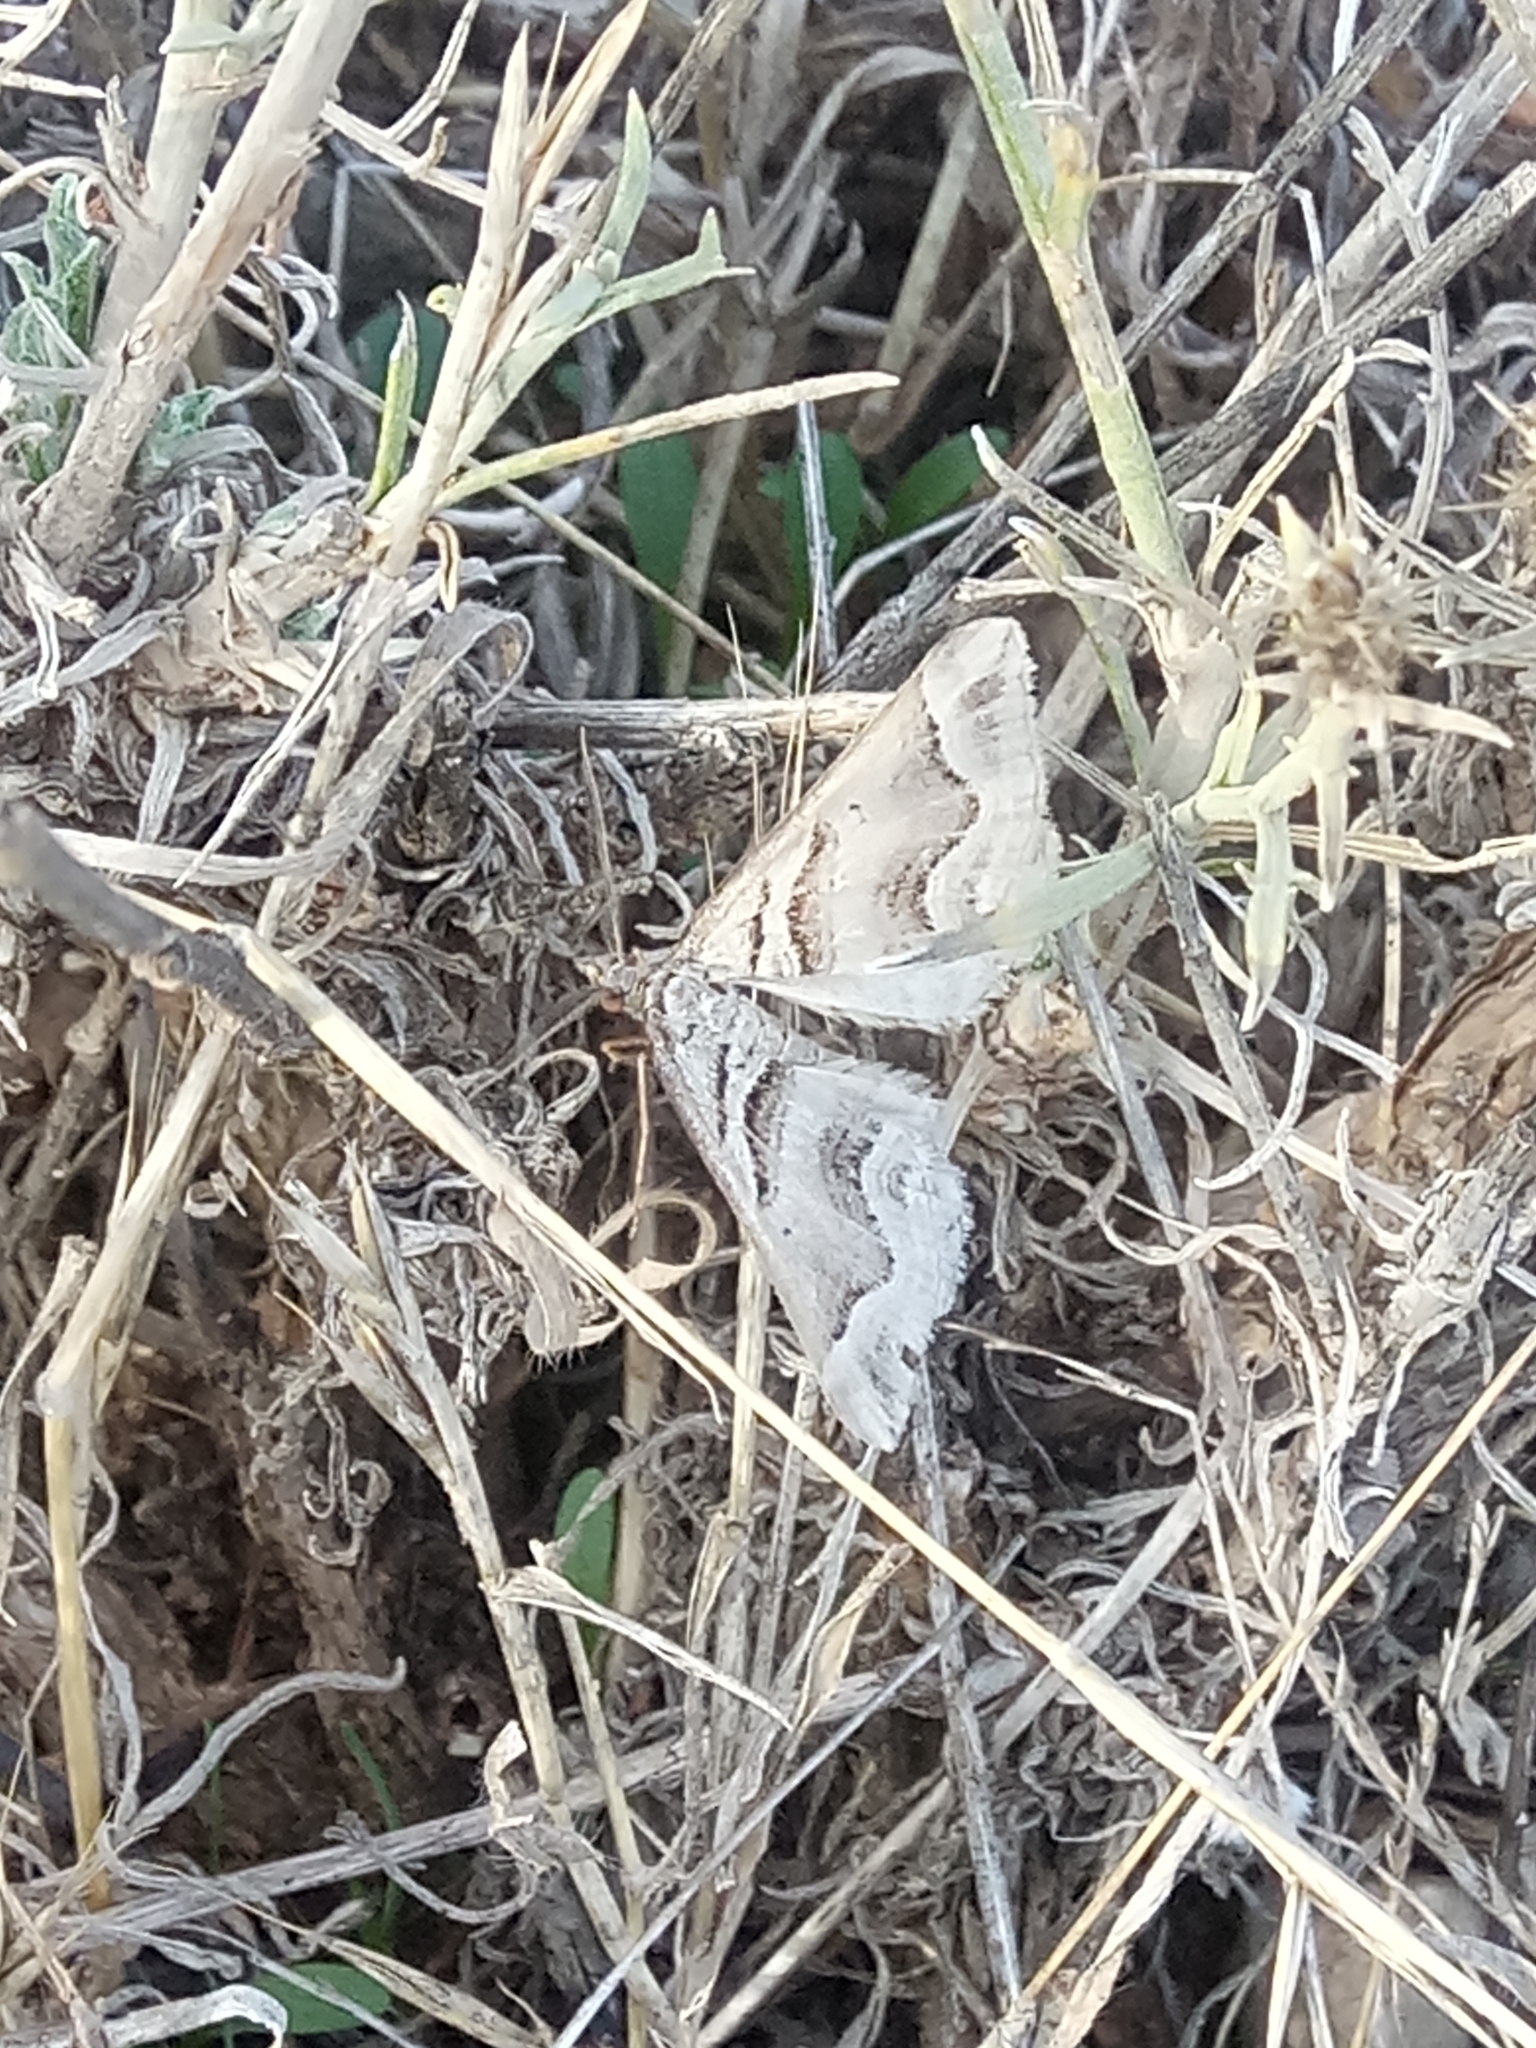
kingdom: Animalia
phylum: Arthropoda
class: Insecta
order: Lepidoptera
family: Geometridae
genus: Scotopteryx
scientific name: Scotopteryx peribolata
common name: Spanish carpet
